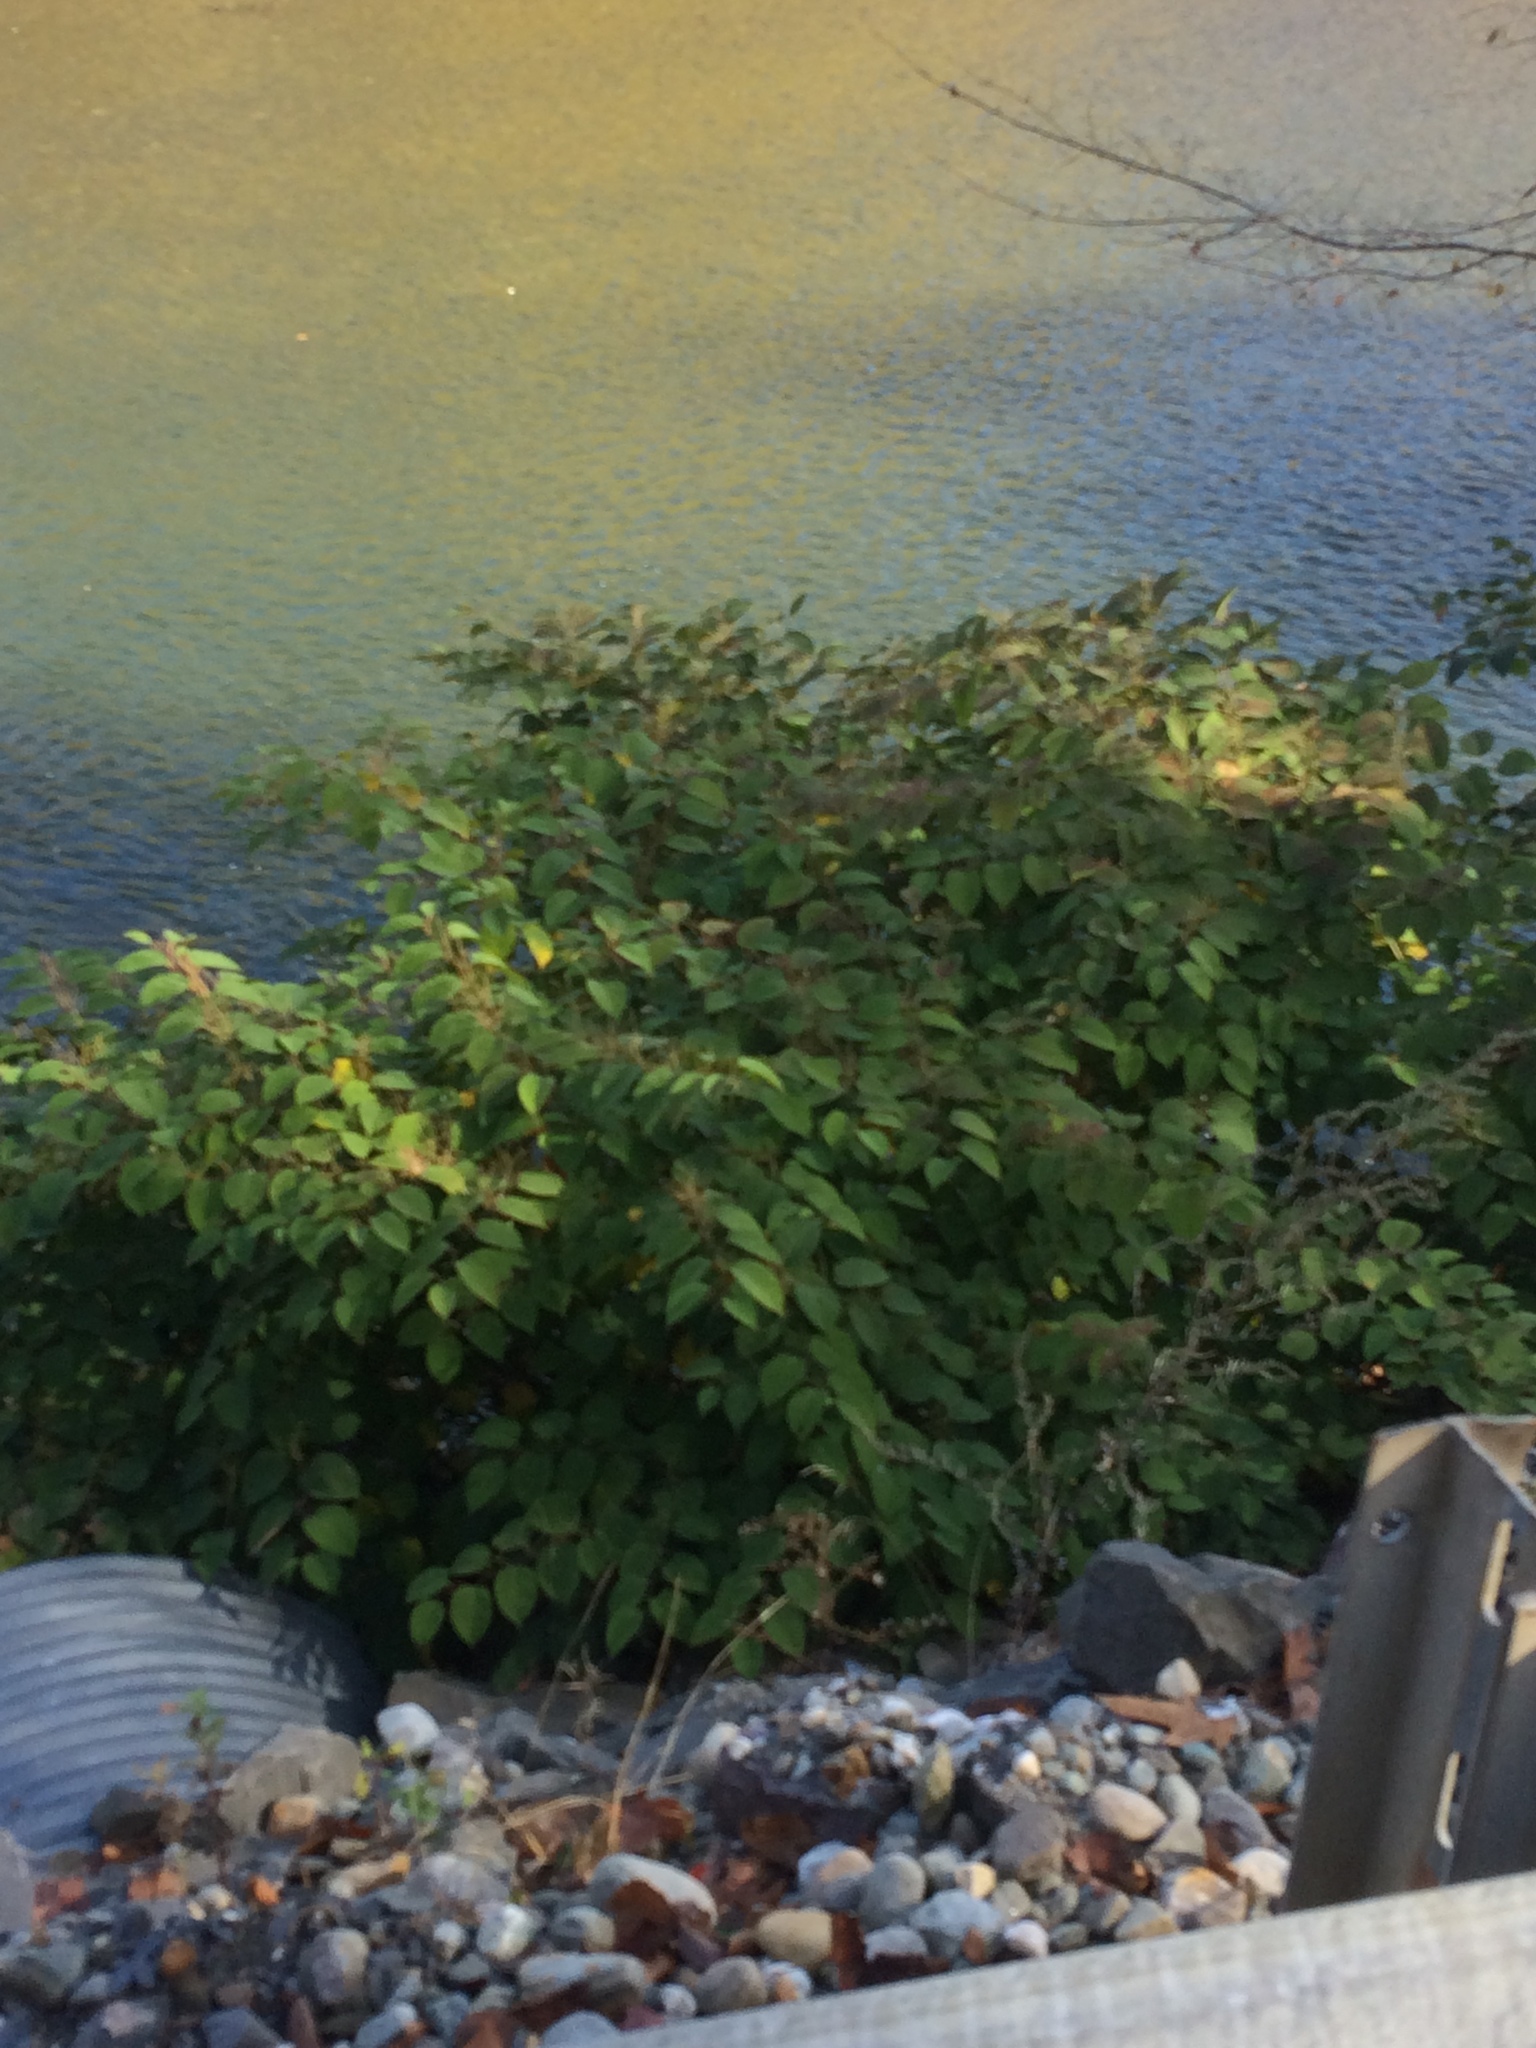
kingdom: Plantae
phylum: Tracheophyta
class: Magnoliopsida
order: Caryophyllales
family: Polygonaceae
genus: Reynoutria
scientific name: Reynoutria japonica
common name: Japanese knotweed
